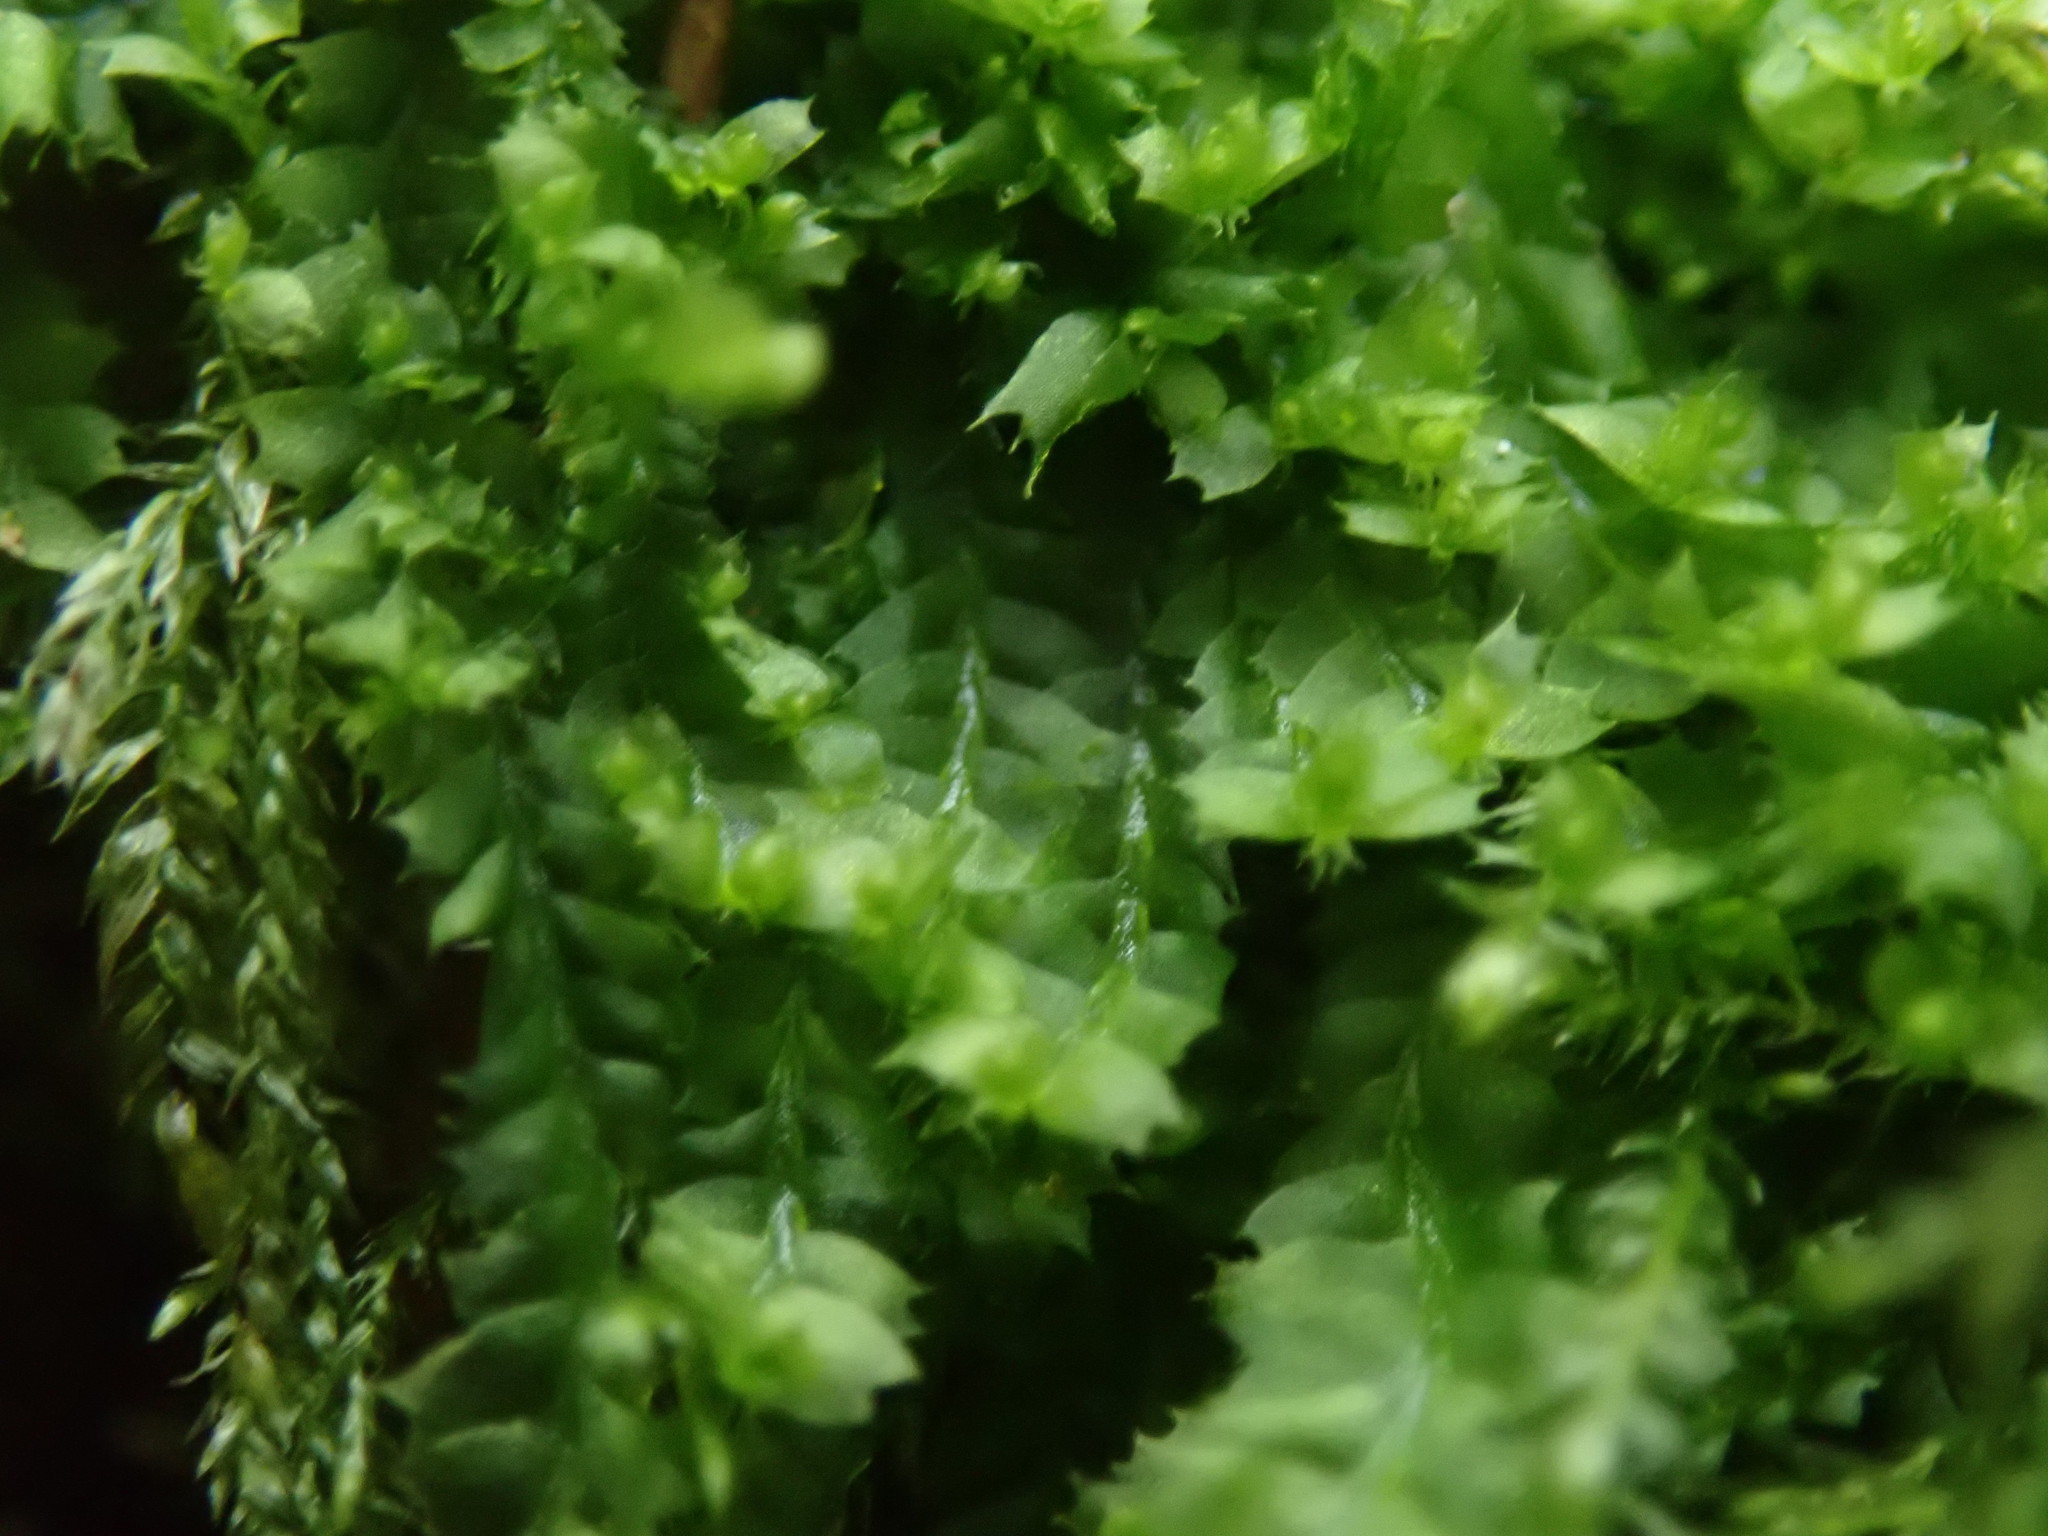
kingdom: Plantae
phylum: Marchantiophyta
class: Jungermanniopsida
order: Jungermanniales
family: Lophocoleaceae
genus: Lophocolea
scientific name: Lophocolea bidentata
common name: Bifid crestwort
